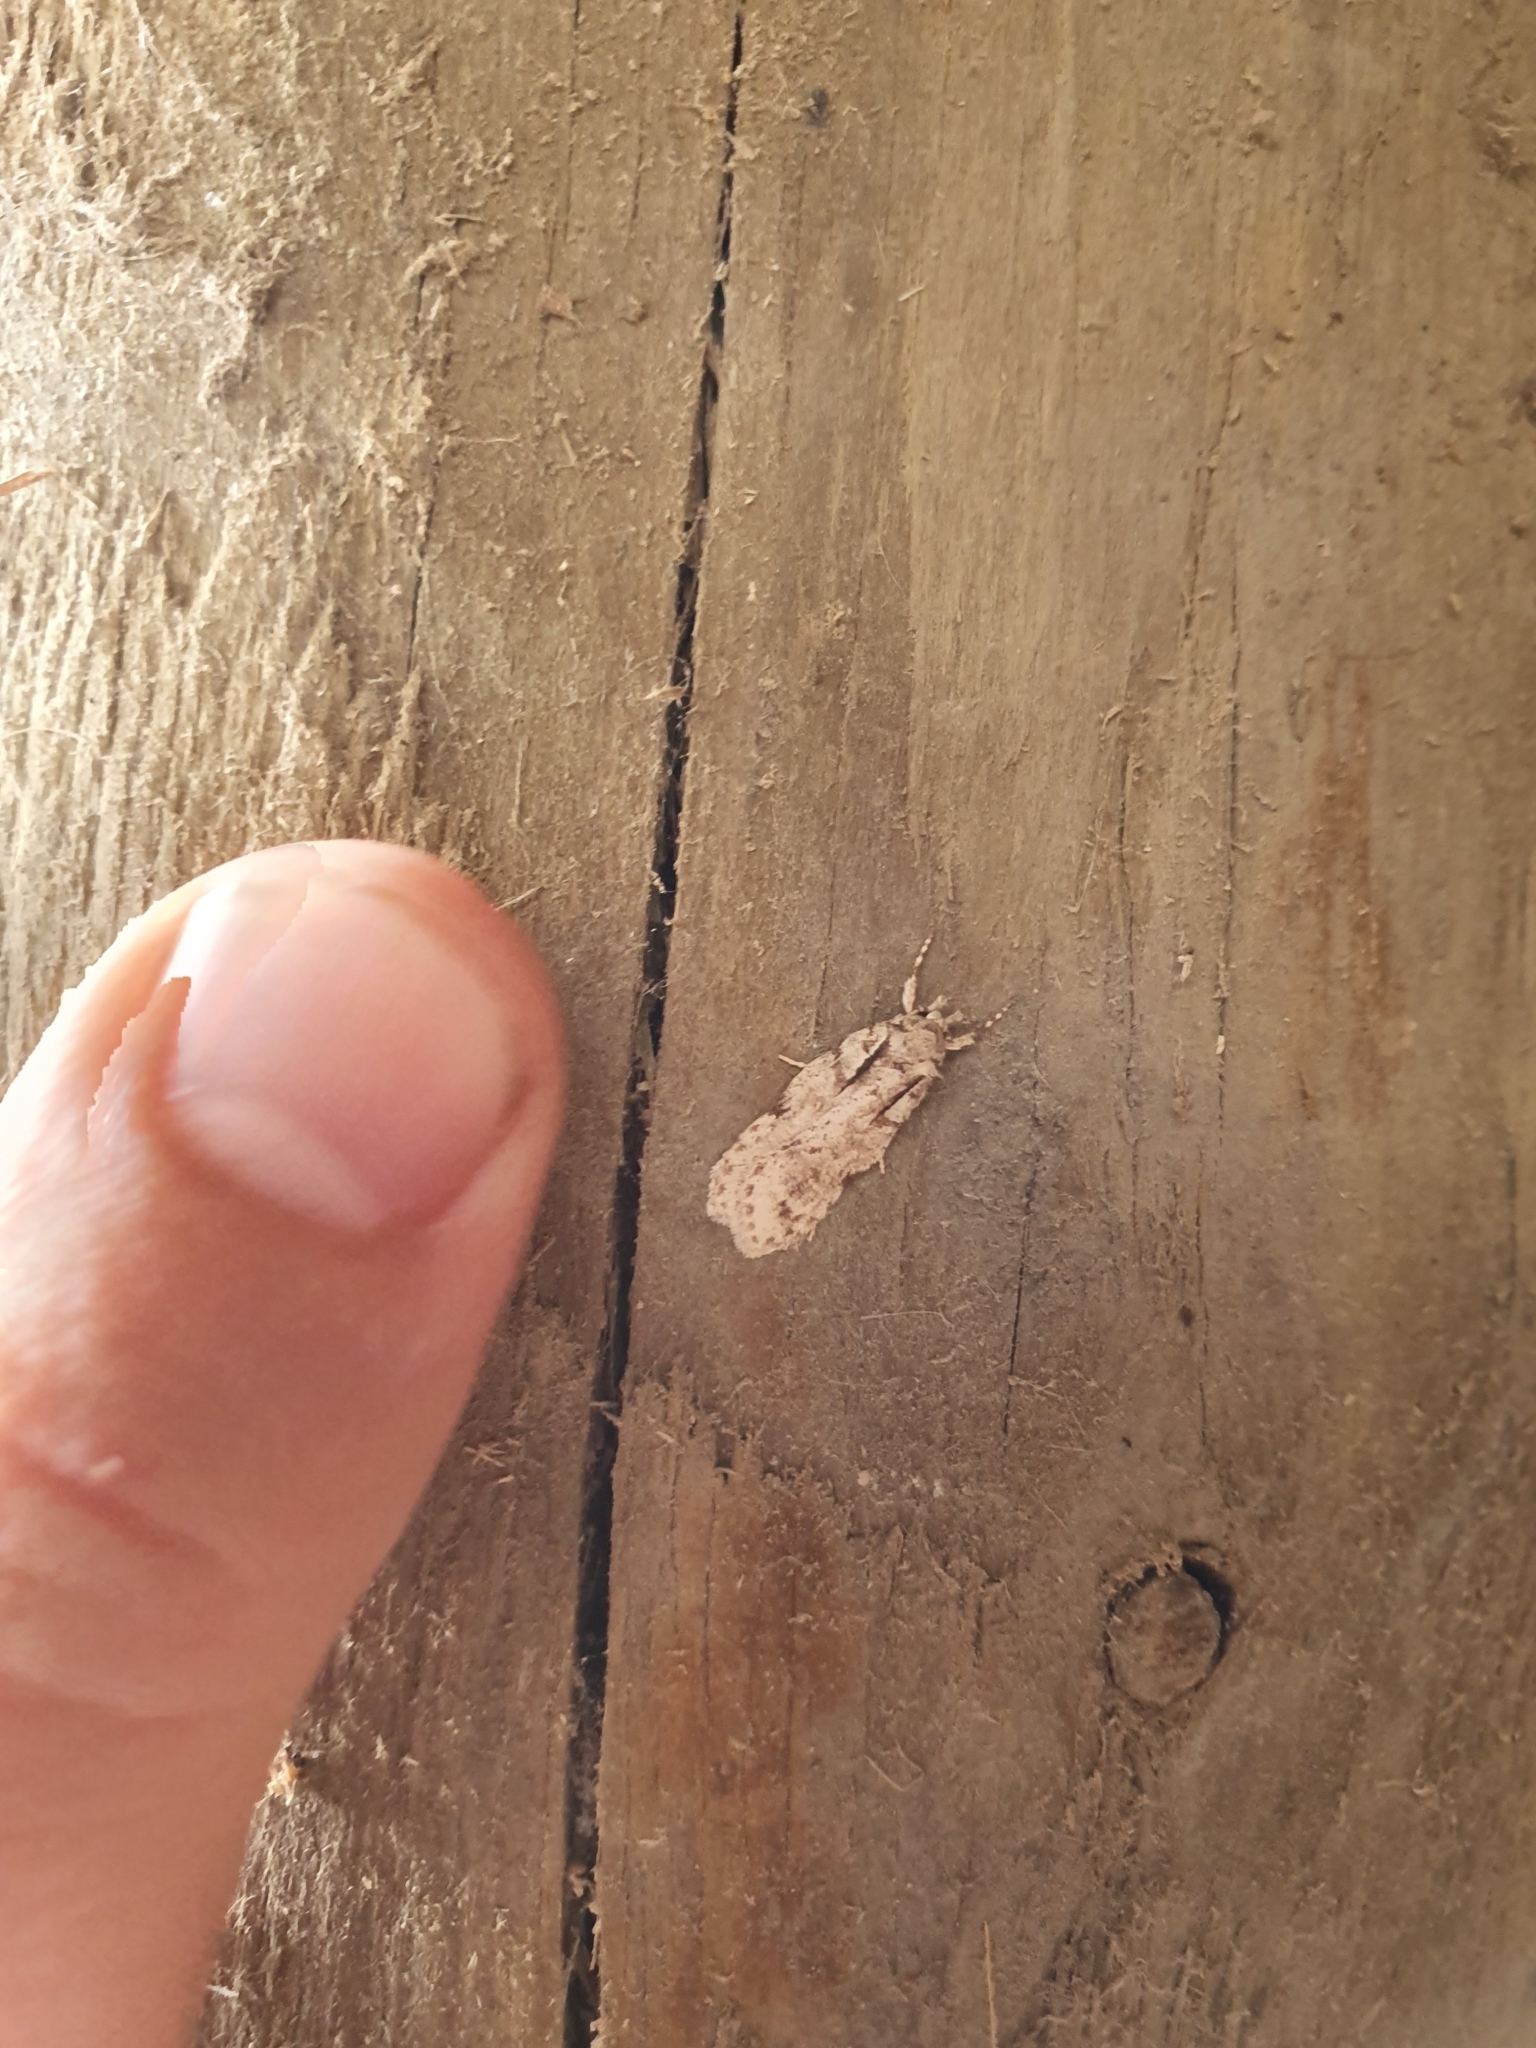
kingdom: Animalia
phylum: Arthropoda
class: Insecta
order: Lepidoptera
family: Oecophoridae
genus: Izatha
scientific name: Izatha attactella
